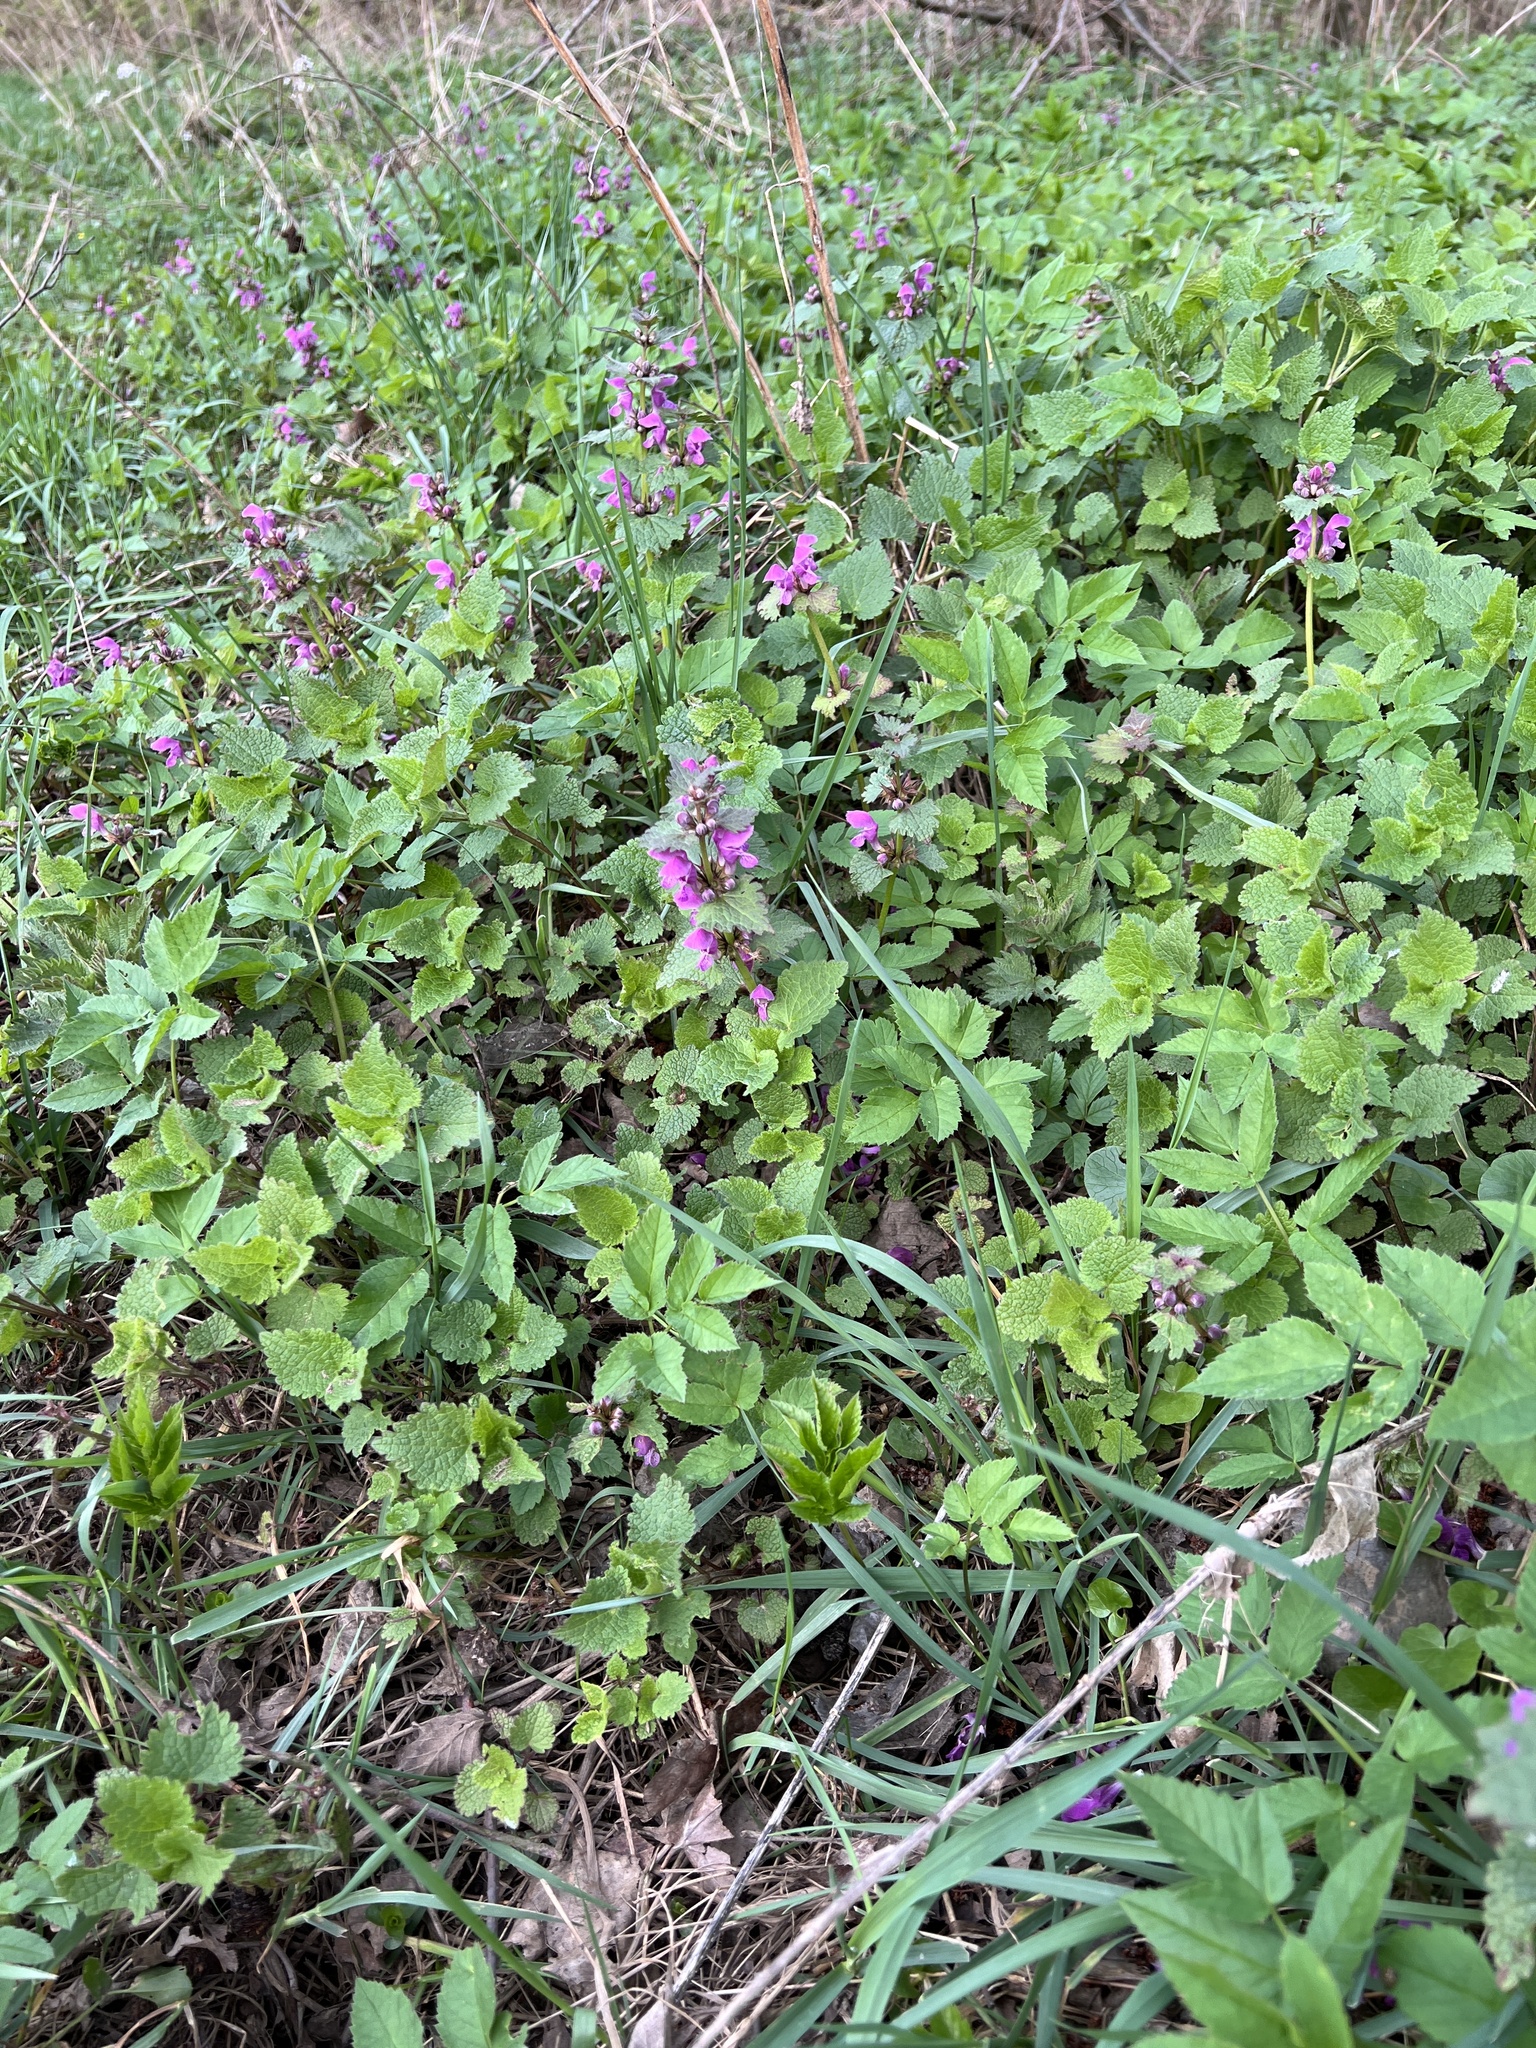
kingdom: Plantae
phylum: Tracheophyta
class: Magnoliopsida
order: Lamiales
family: Lamiaceae
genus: Lamium
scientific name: Lamium maculatum
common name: Spotted dead-nettle
